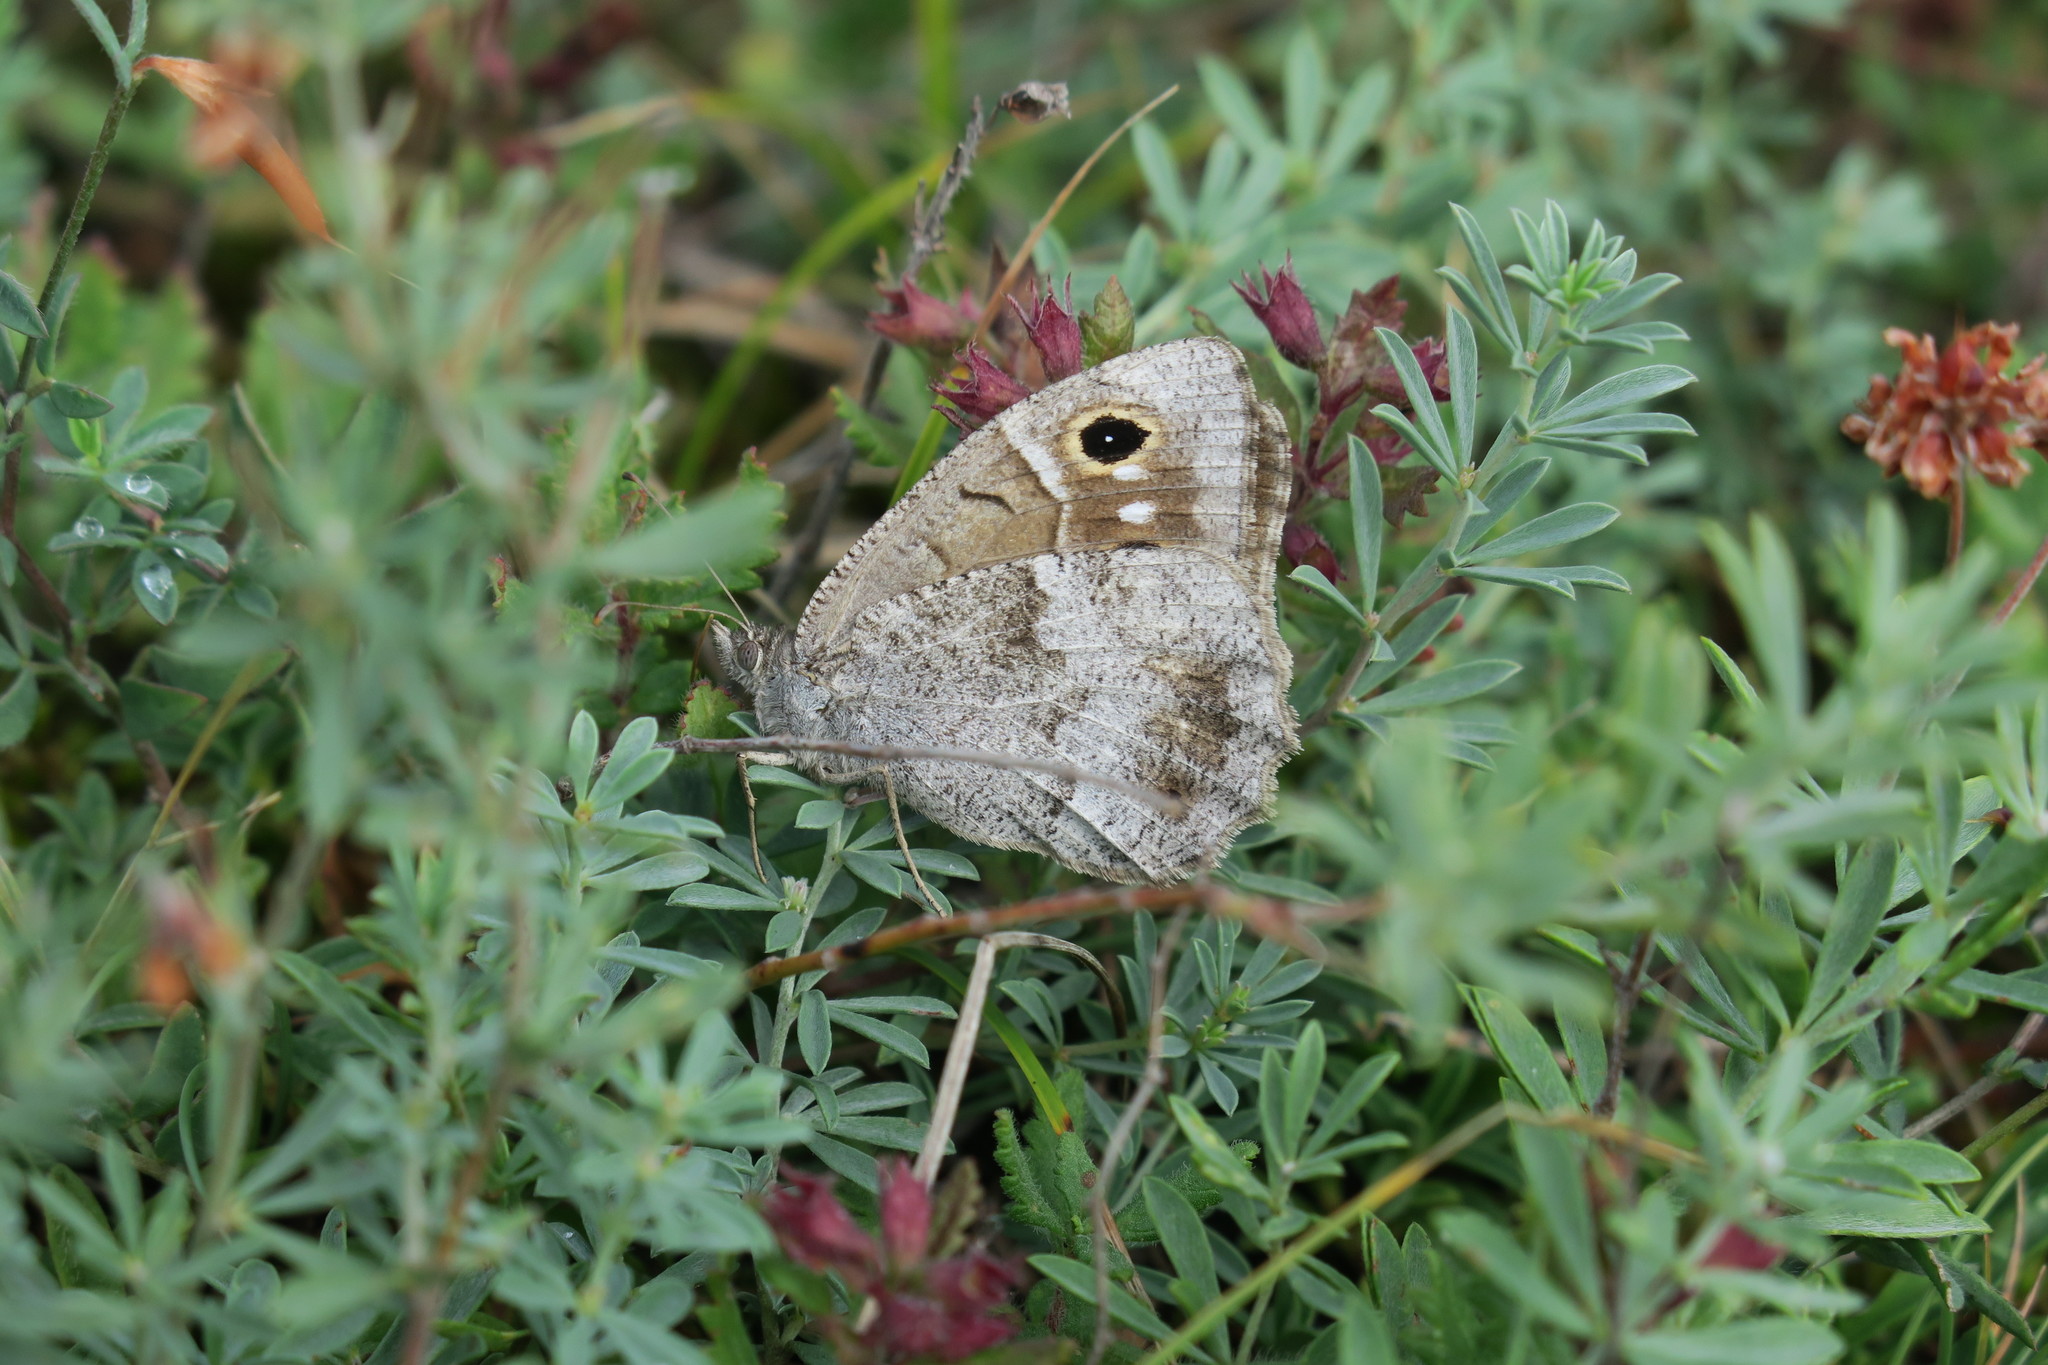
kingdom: Animalia
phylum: Arthropoda
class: Insecta
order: Lepidoptera
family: Nymphalidae
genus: Hipparchia
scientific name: Hipparchia statilinus
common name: Tree grayling
